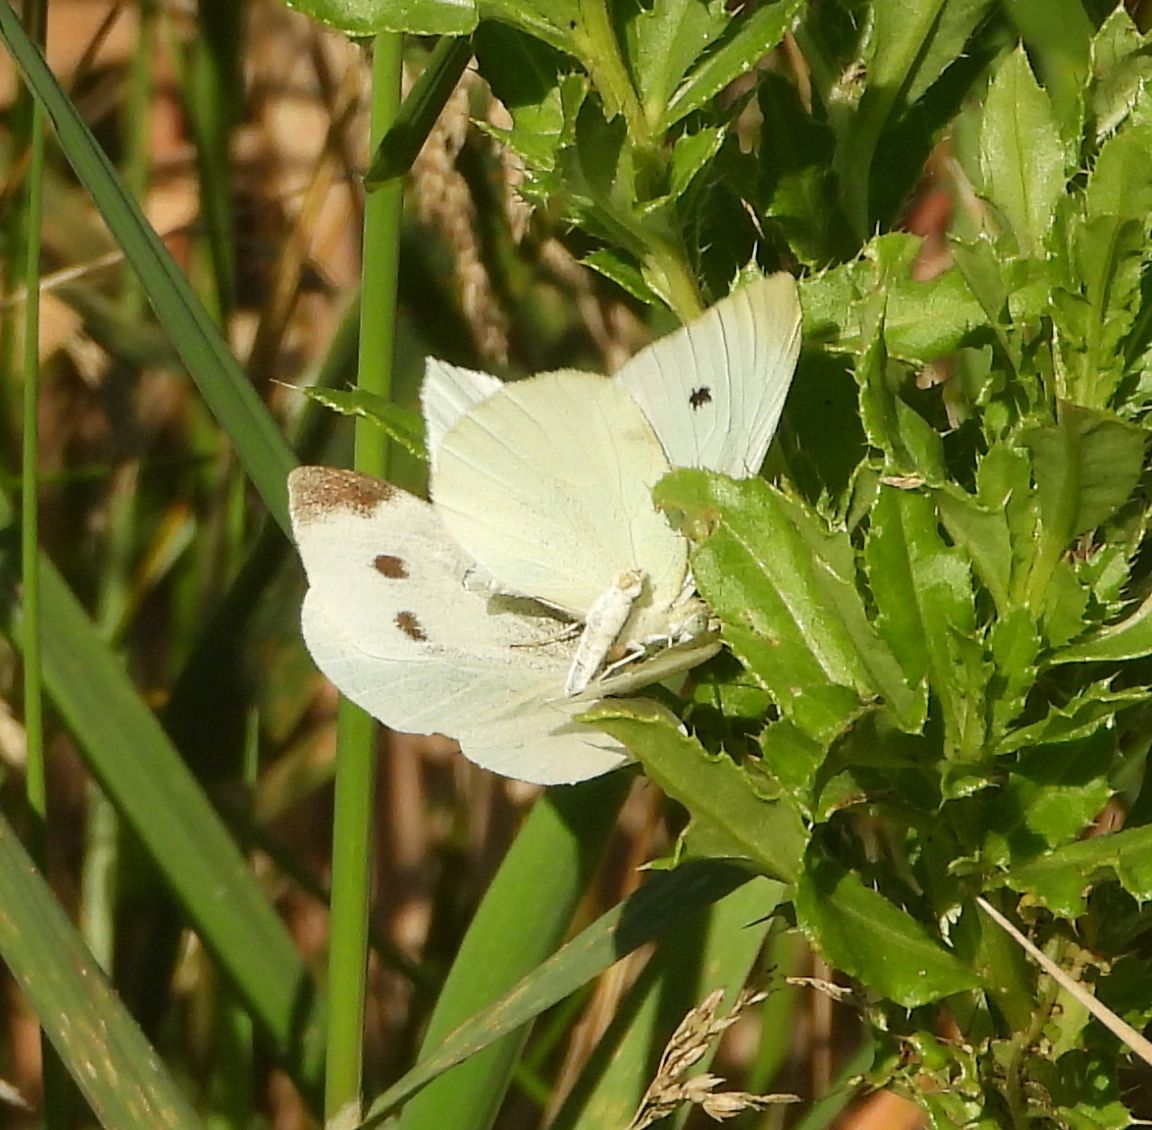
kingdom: Animalia
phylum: Arthropoda
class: Insecta
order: Lepidoptera
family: Pieridae
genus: Pieris
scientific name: Pieris rapae
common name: Small white
